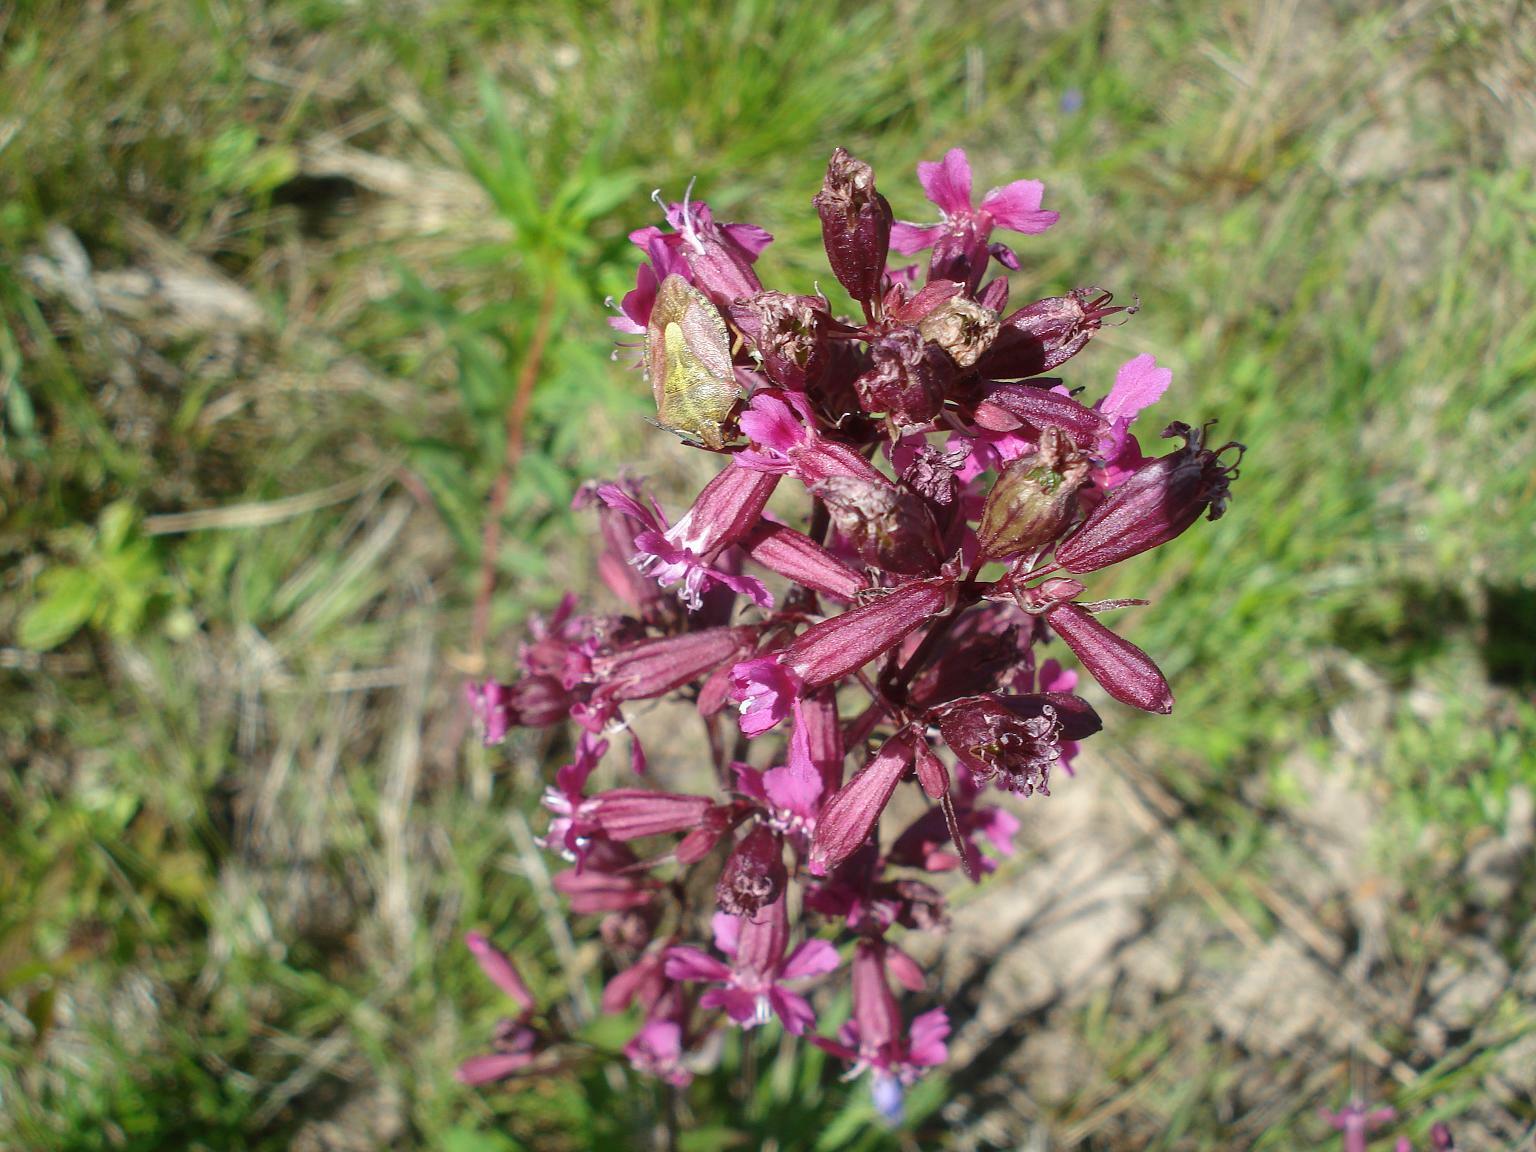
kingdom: Plantae
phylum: Tracheophyta
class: Magnoliopsida
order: Caryophyllales
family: Caryophyllaceae
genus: Viscaria
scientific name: Viscaria vulgaris
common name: Clammy campion
